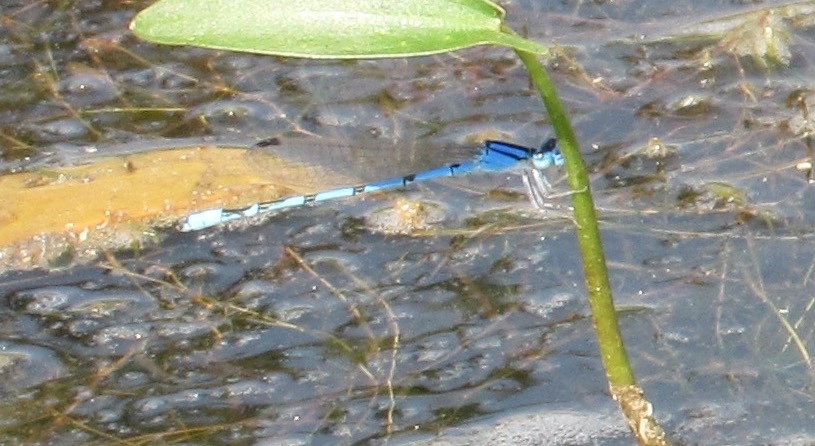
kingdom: Animalia
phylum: Arthropoda
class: Insecta
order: Odonata
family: Coenagrionidae
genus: Enallagma
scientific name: Enallagma civile
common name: Damselfly
